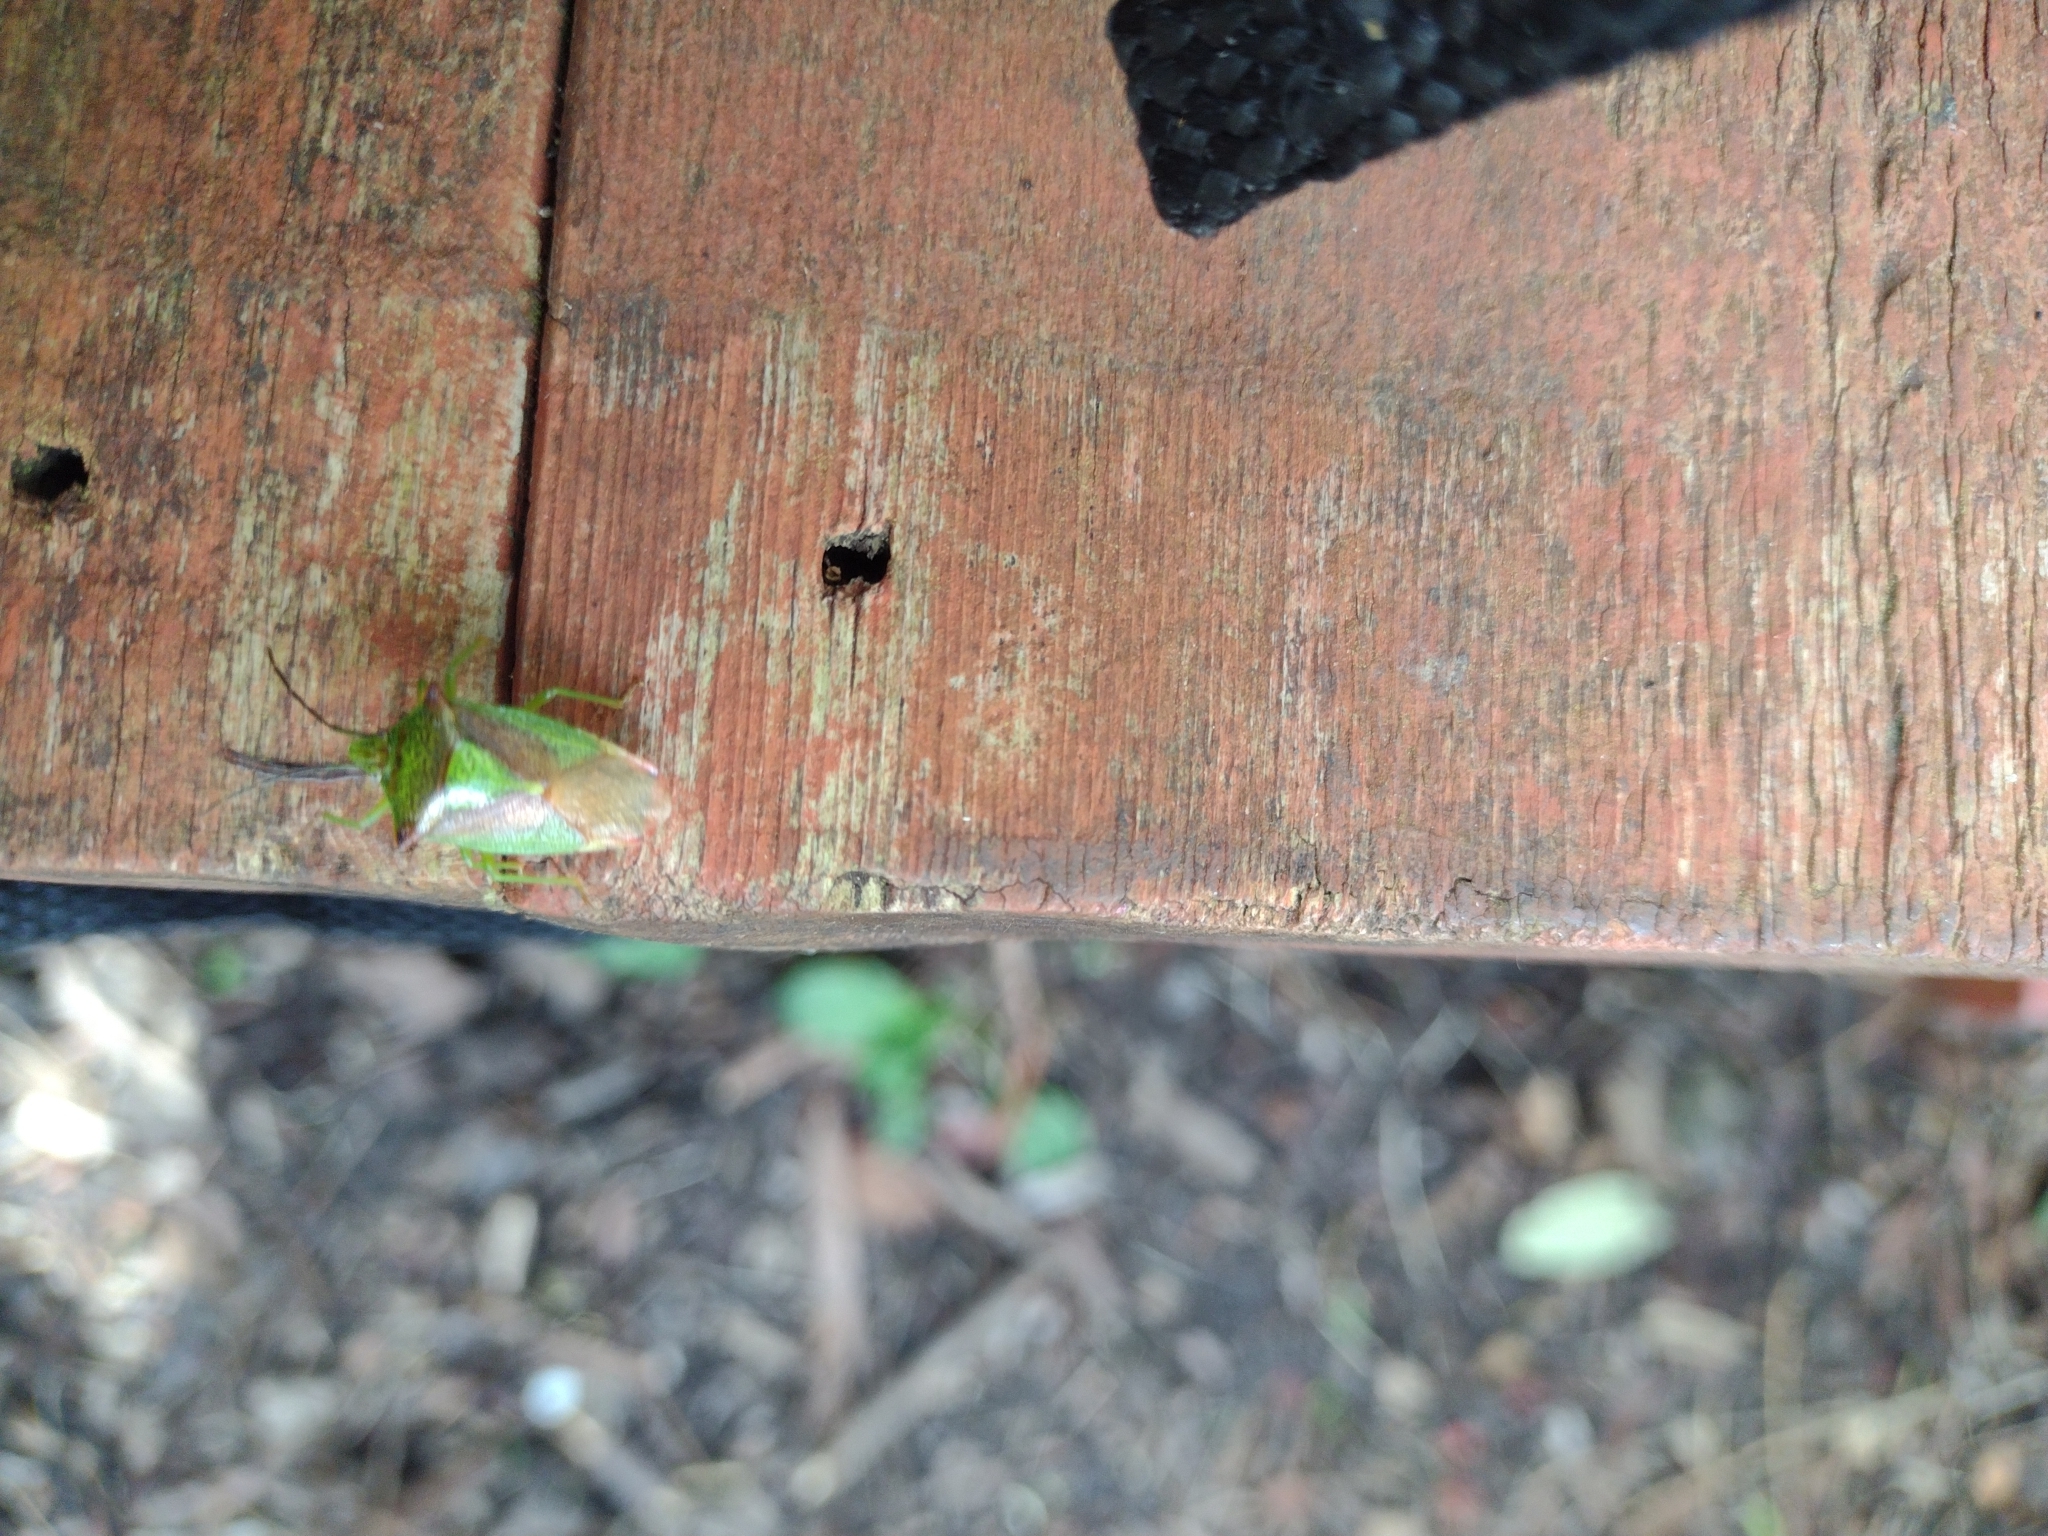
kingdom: Animalia
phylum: Arthropoda
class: Insecta
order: Hemiptera
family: Acanthosomatidae
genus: Acanthosoma
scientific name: Acanthosoma haemorrhoidale
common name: Hawthorn shieldbug
